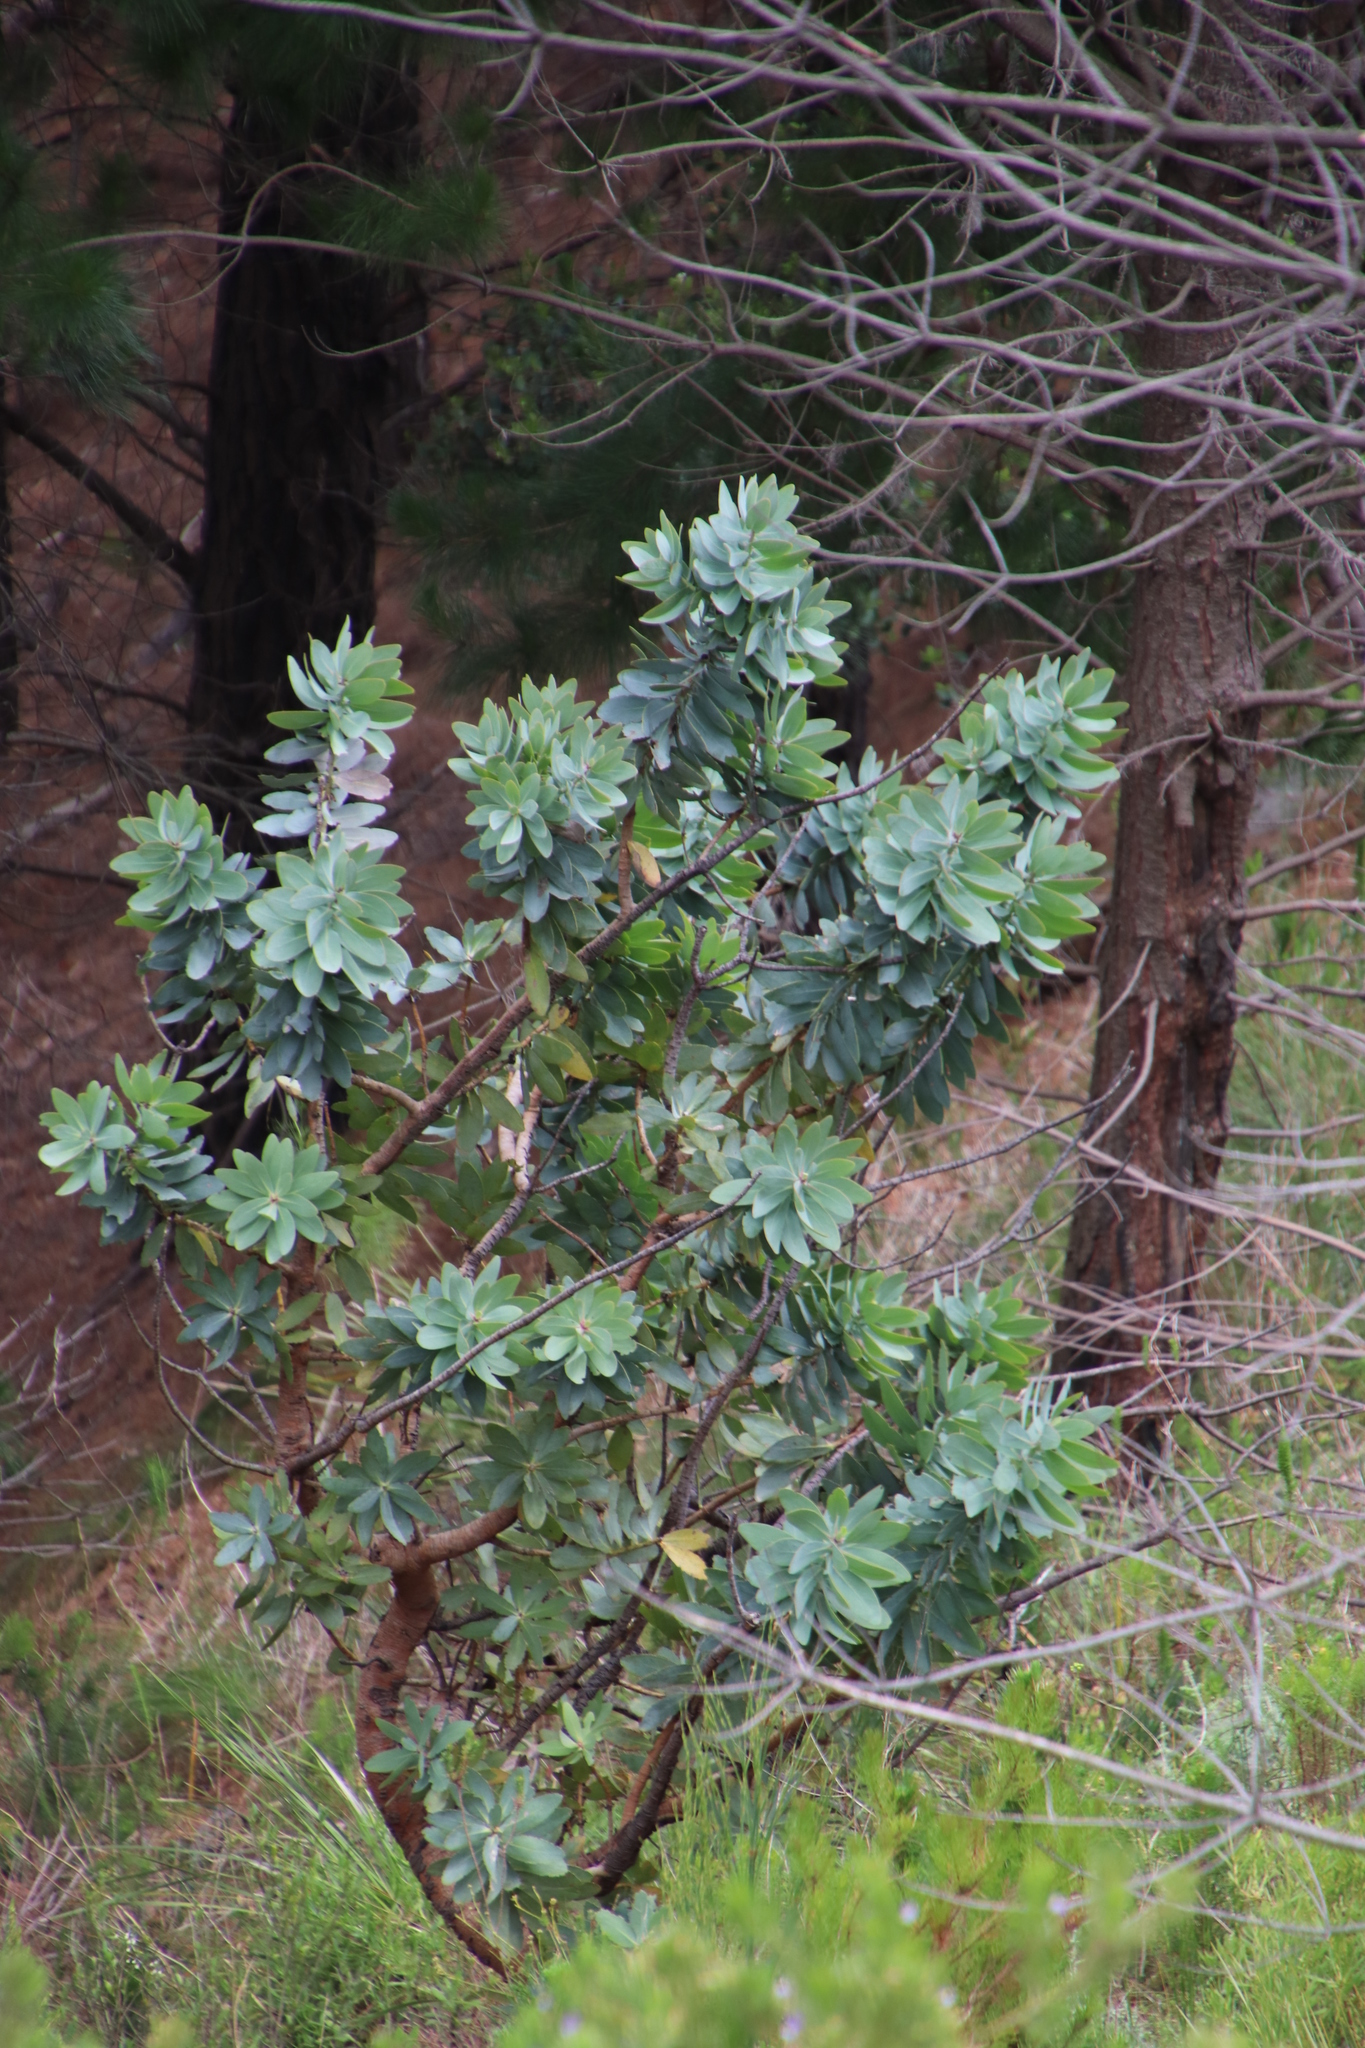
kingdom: Plantae
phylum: Tracheophyta
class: Magnoliopsida
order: Proteales
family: Proteaceae
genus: Protea
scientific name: Protea nitida
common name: Tree protea
